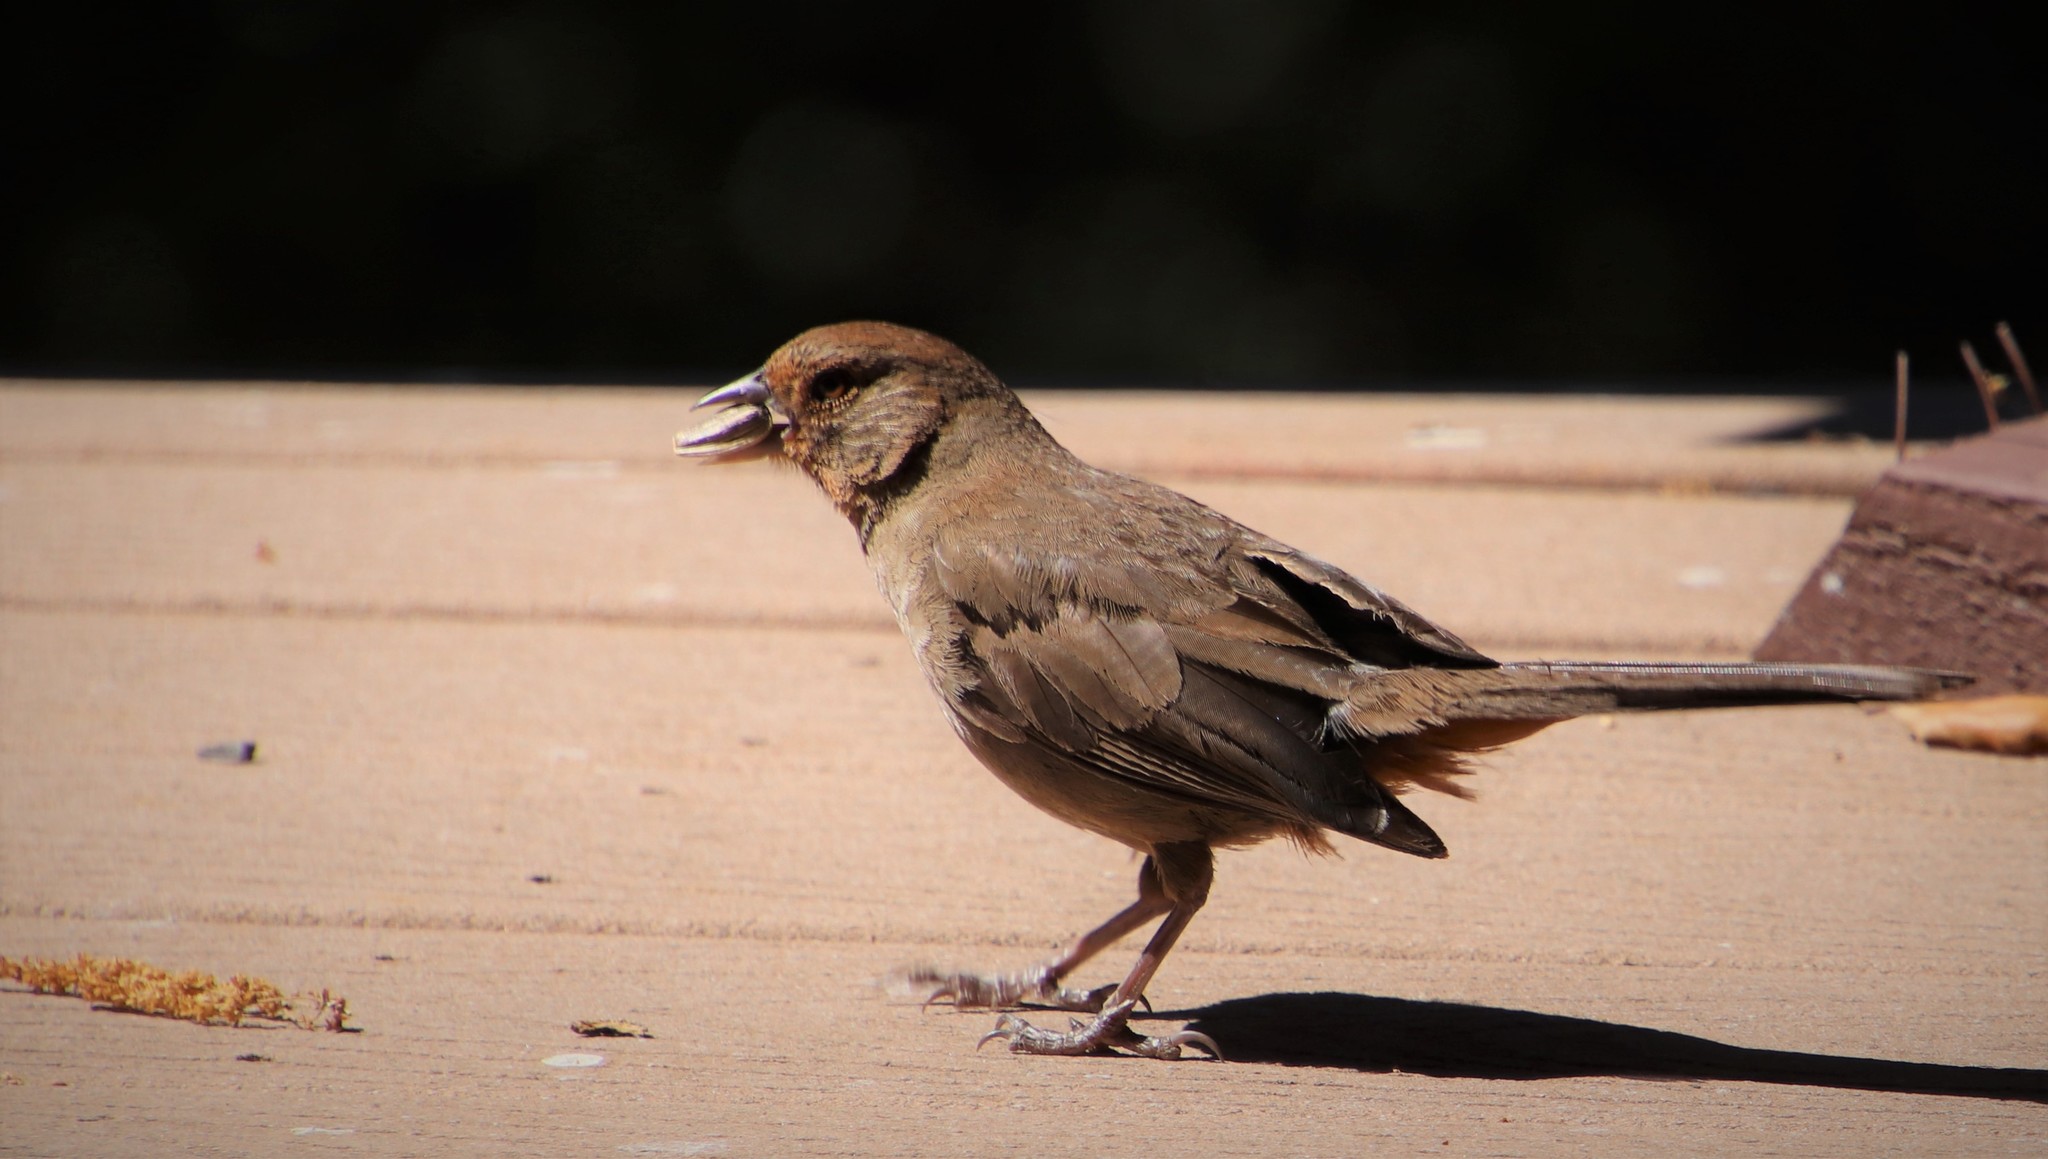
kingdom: Animalia
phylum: Chordata
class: Aves
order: Passeriformes
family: Passerellidae
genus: Melozone
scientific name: Melozone crissalis
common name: California towhee
